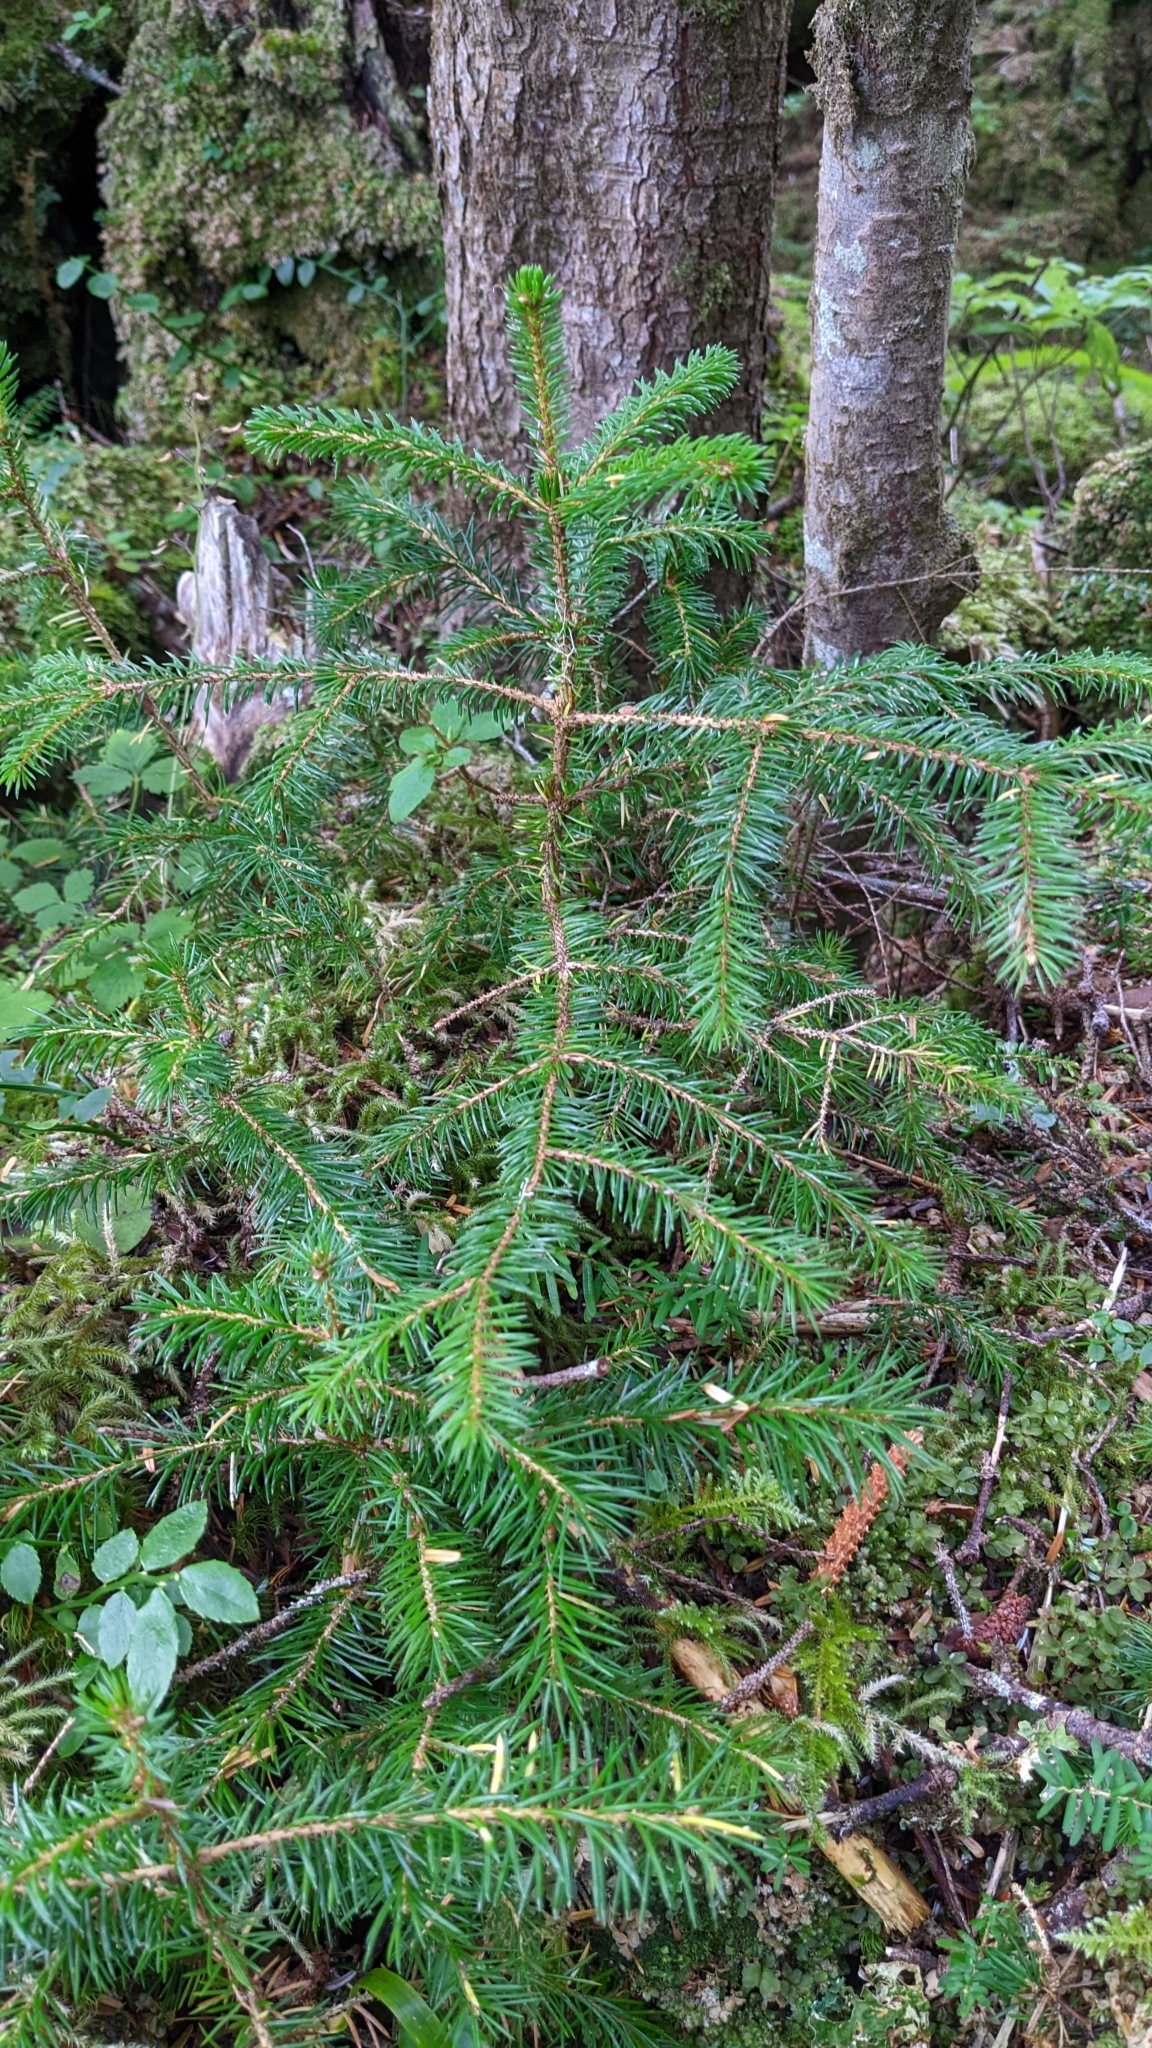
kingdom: Plantae
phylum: Tracheophyta
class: Pinopsida
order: Pinales
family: Pinaceae
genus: Picea
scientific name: Picea sitchensis
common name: Sitka spruce
